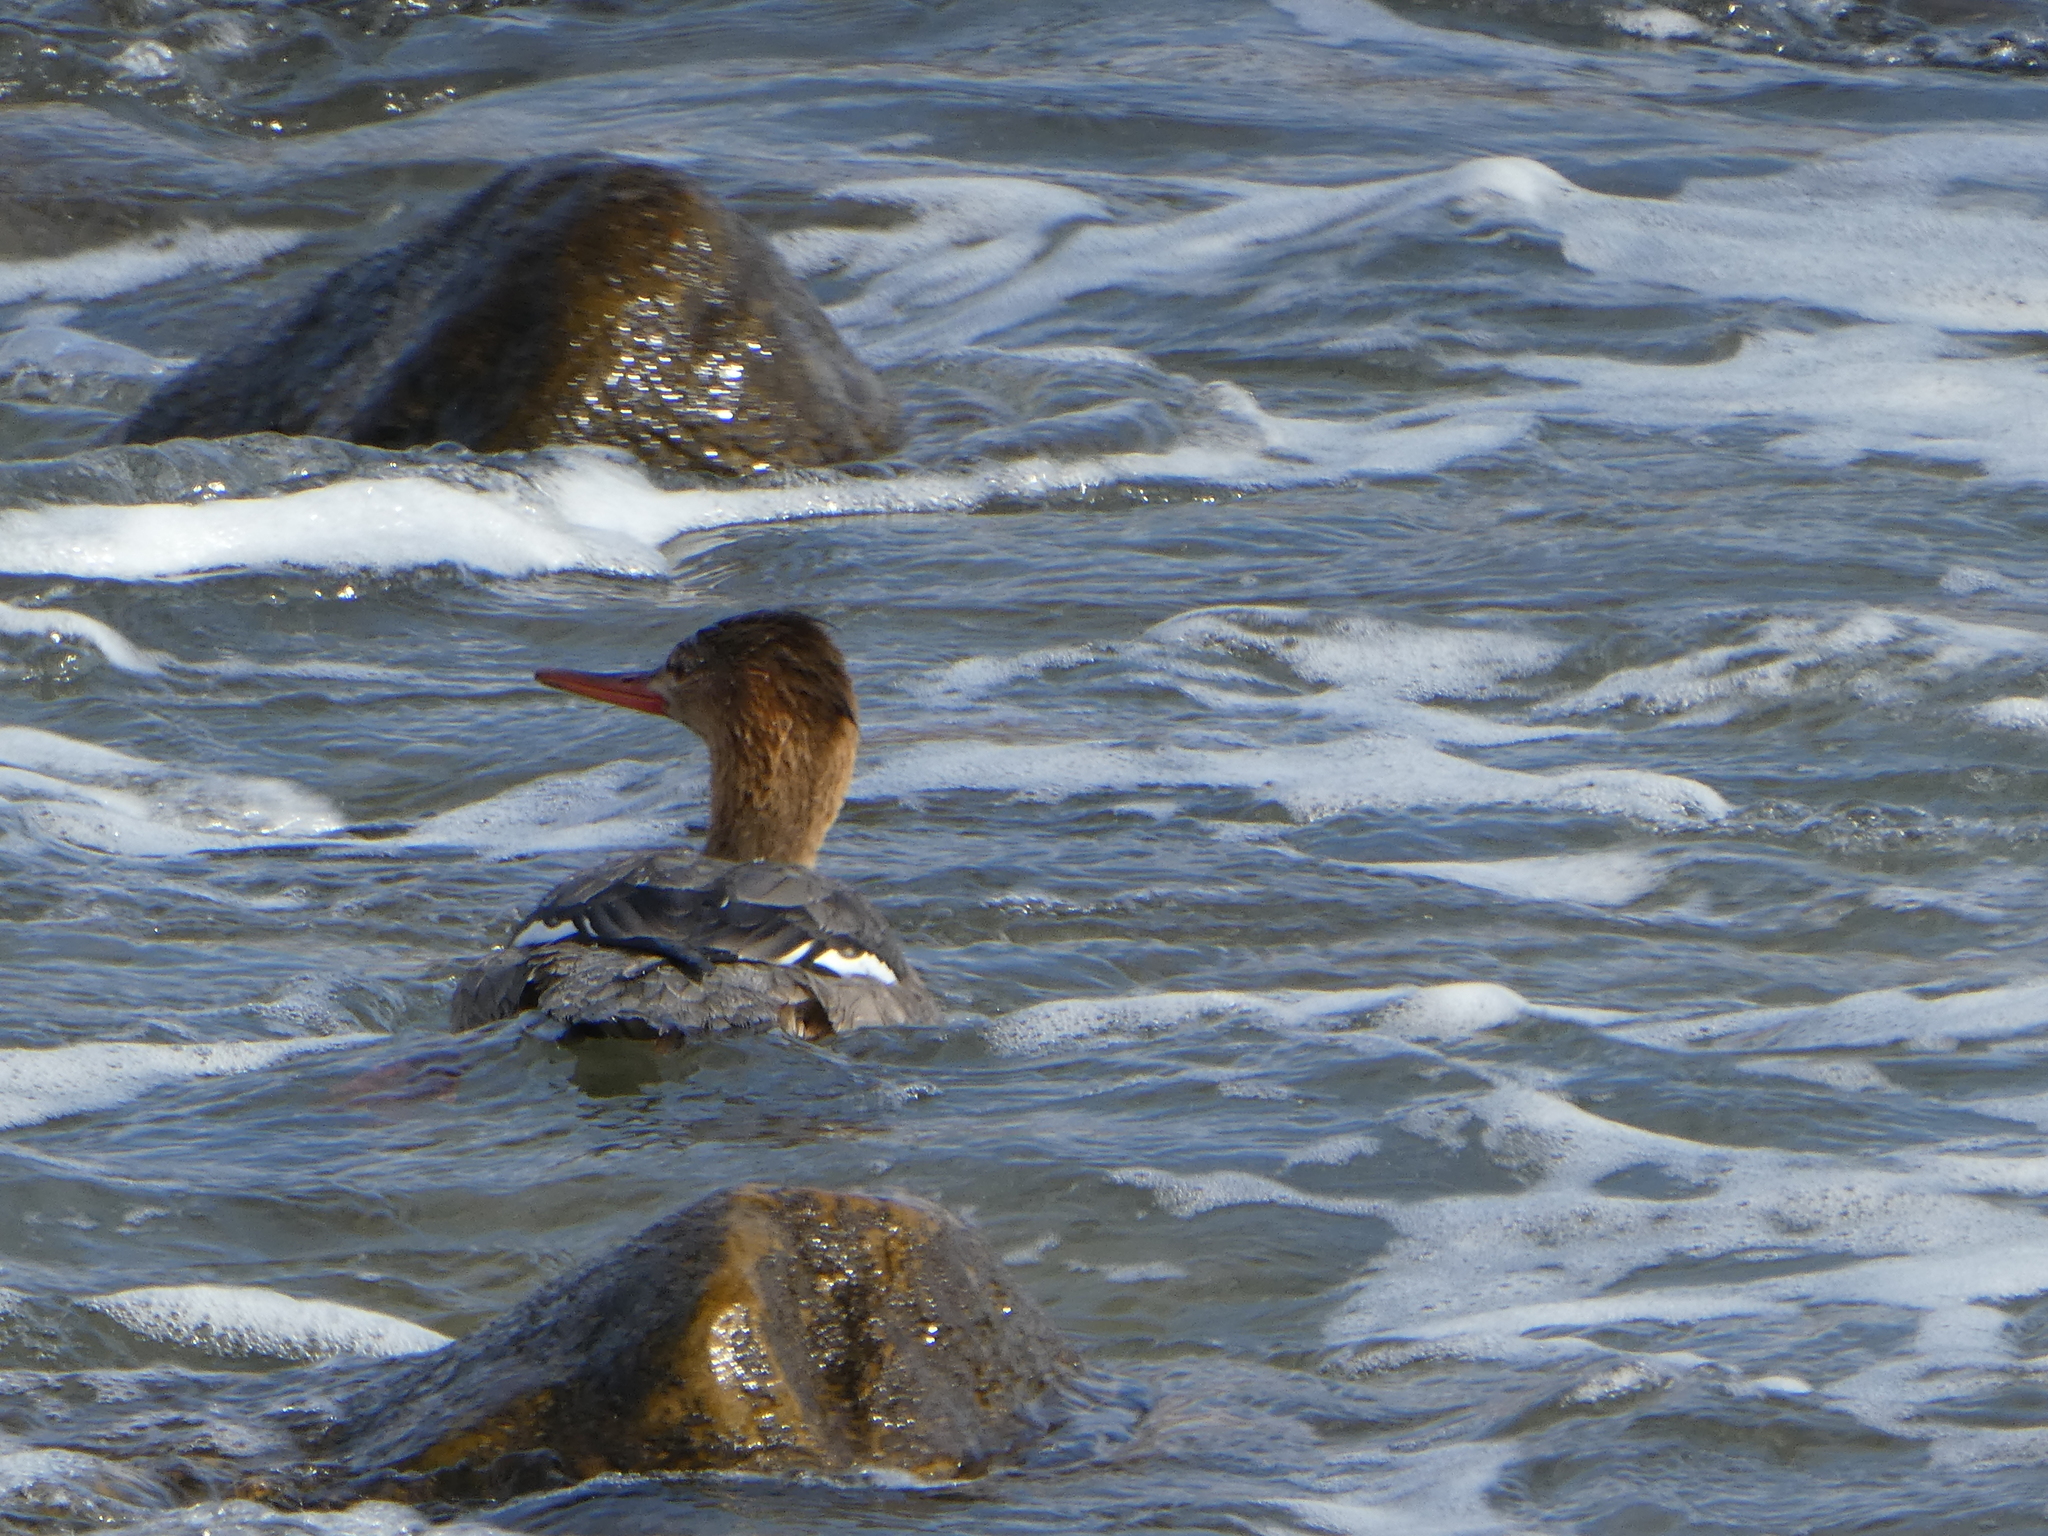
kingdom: Animalia
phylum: Chordata
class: Aves
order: Anseriformes
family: Anatidae
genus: Mergus
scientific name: Mergus serrator
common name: Red-breasted merganser
